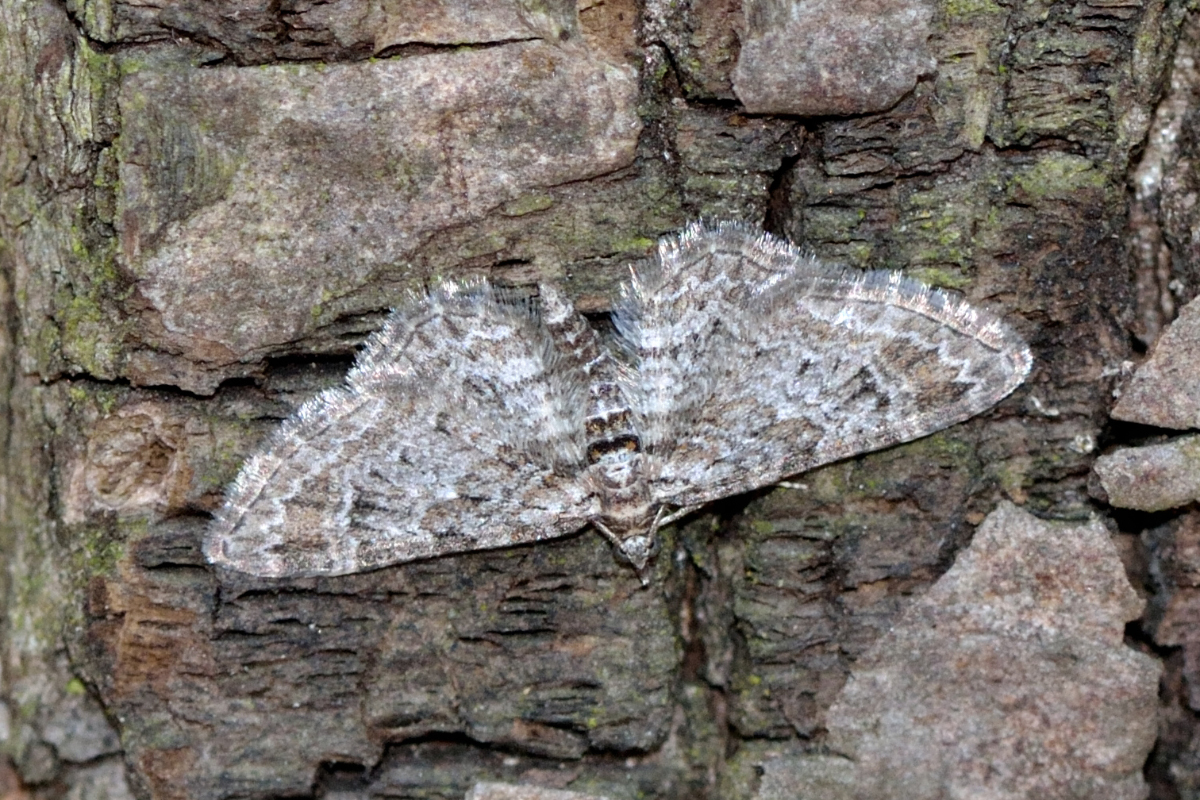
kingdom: Animalia
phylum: Arthropoda
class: Insecta
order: Lepidoptera
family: Geometridae
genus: Gymnoscelis
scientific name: Gymnoscelis rufifasciata
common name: Double-striped pug
